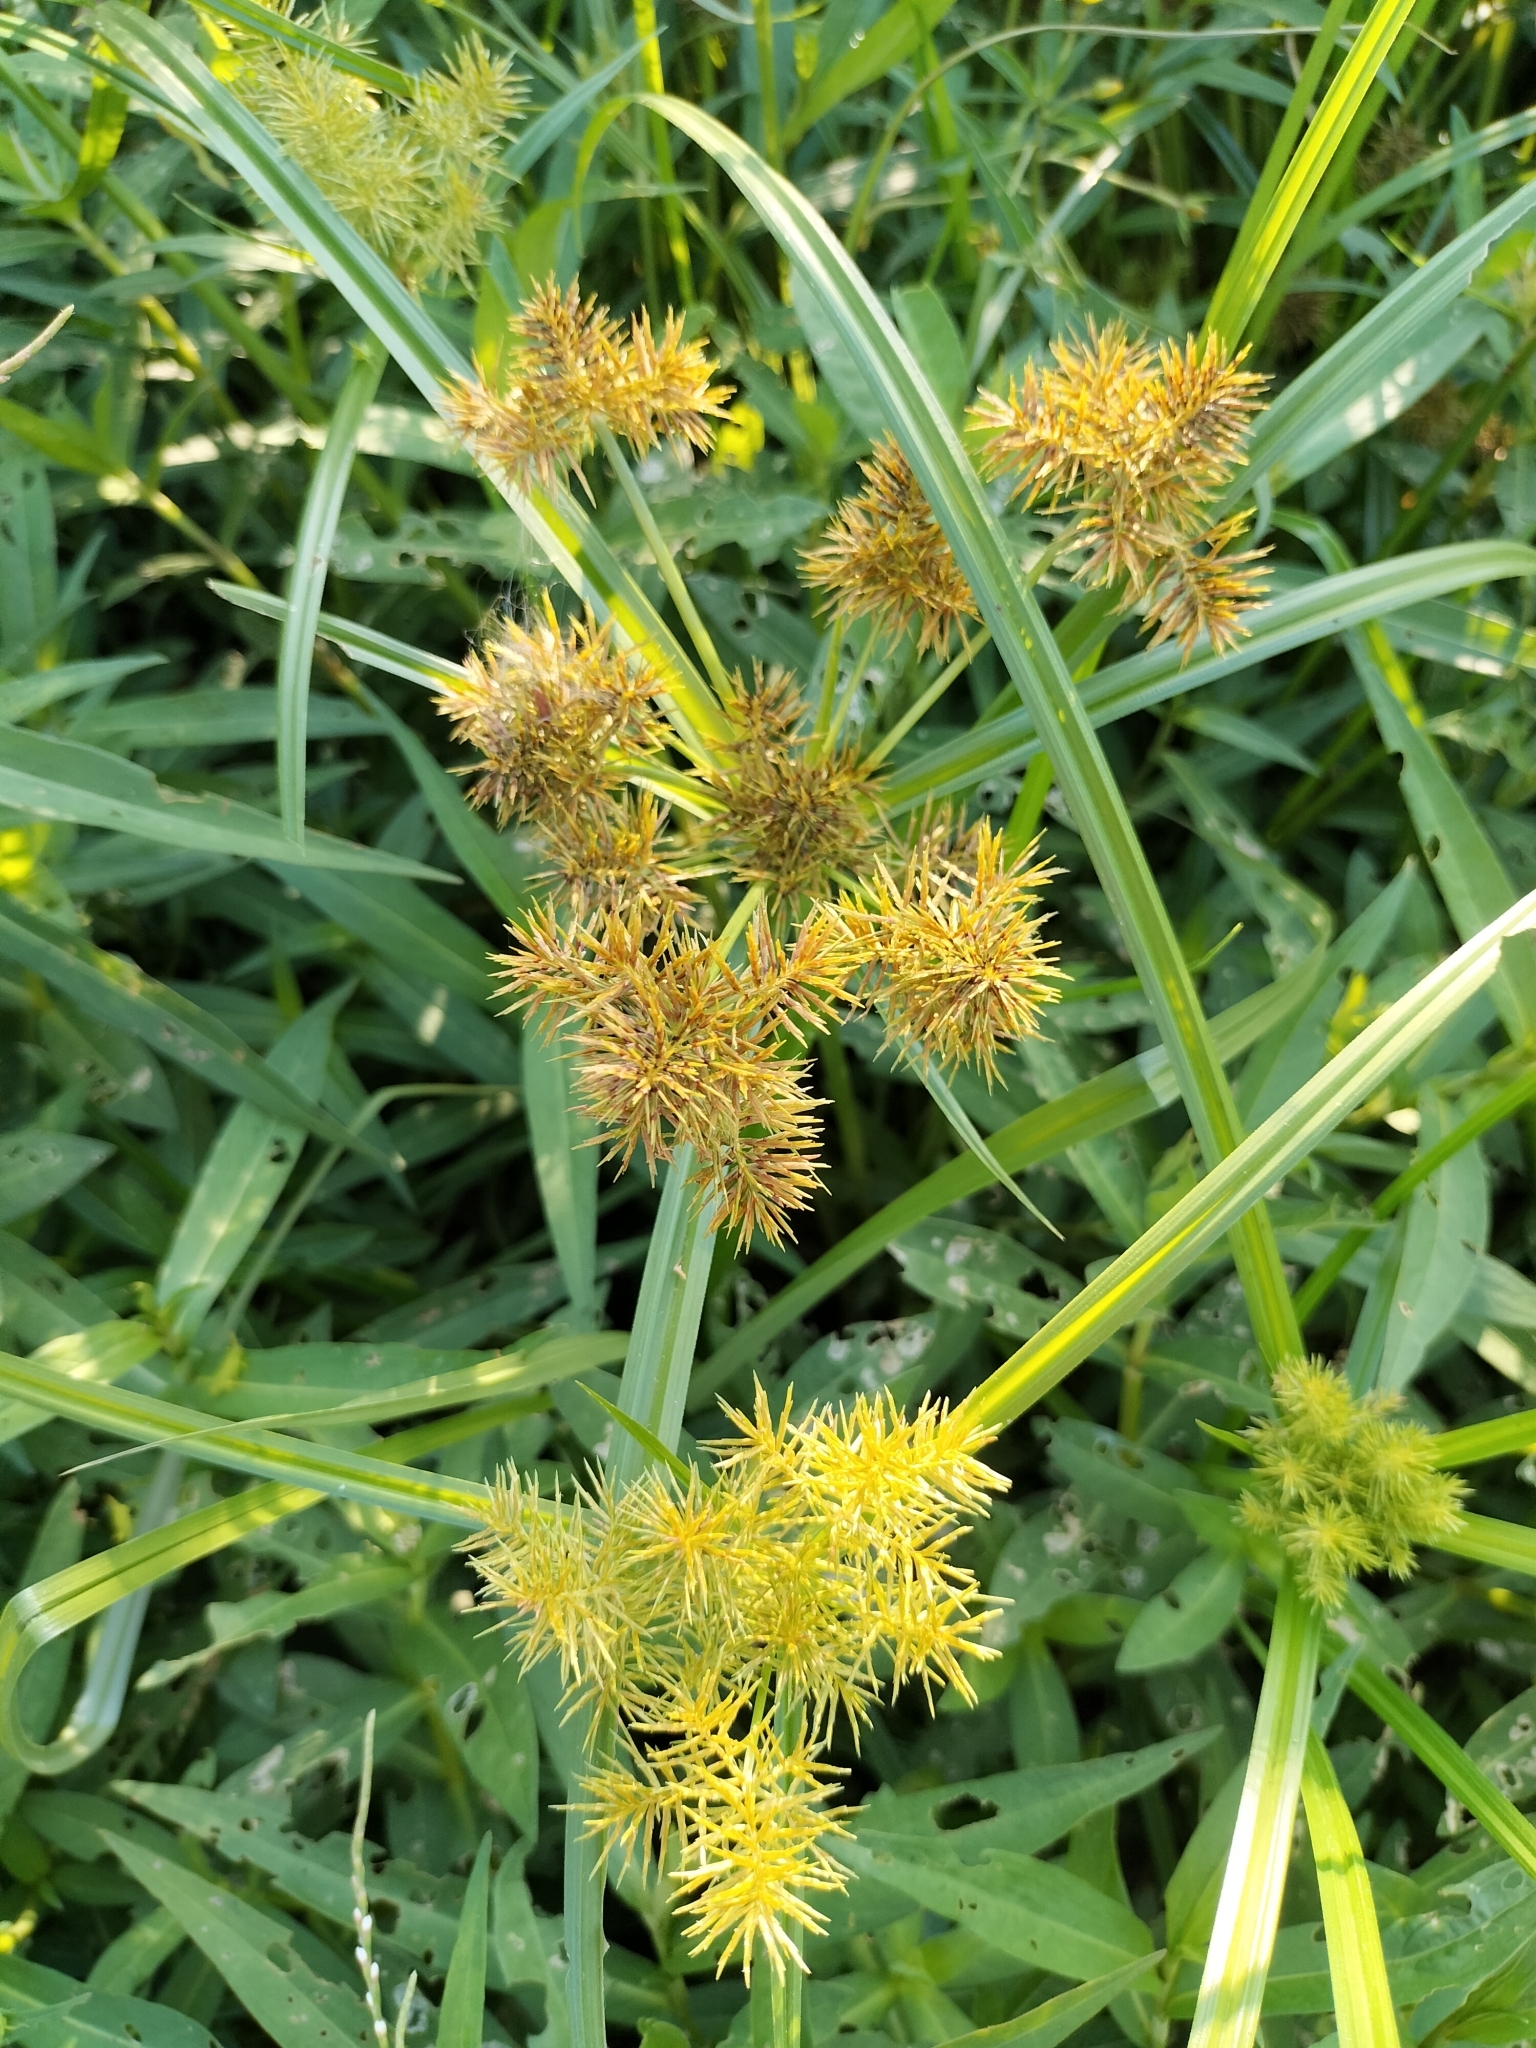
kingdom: Plantae
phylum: Tracheophyta
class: Liliopsida
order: Poales
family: Cyperaceae
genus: Cyperus
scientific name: Cyperus odoratus
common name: Fragrant flatsedge
